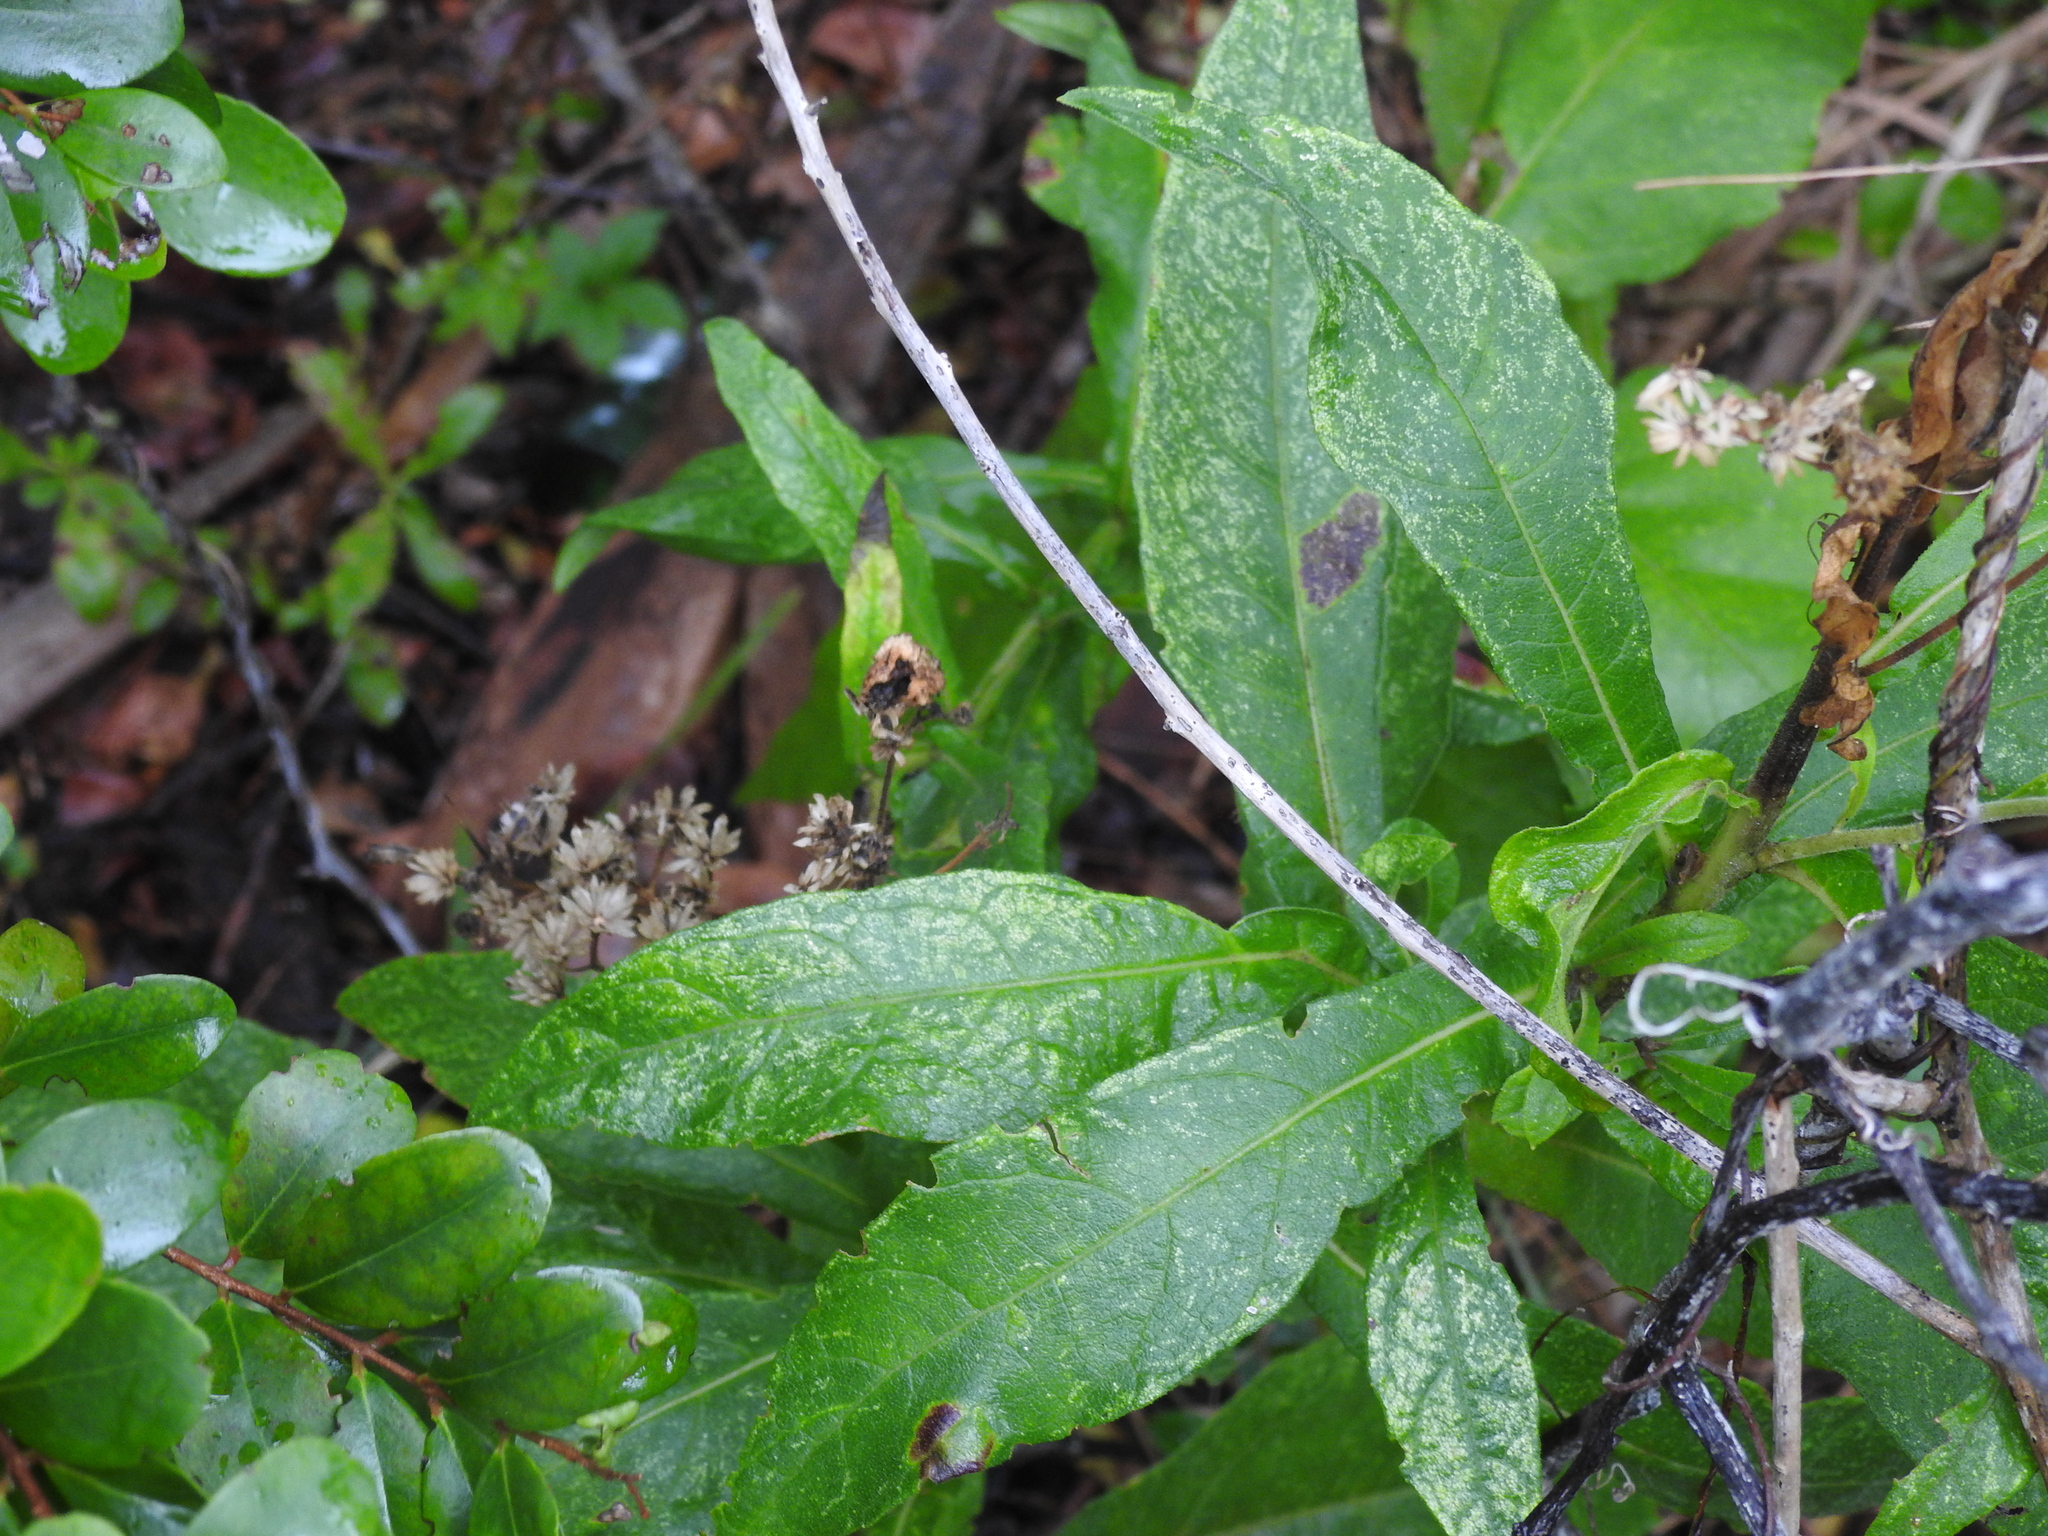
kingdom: Plantae
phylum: Tracheophyta
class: Magnoliopsida
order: Asterales
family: Asteraceae
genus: Verbesina
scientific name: Verbesina virginica
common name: Frostweed
